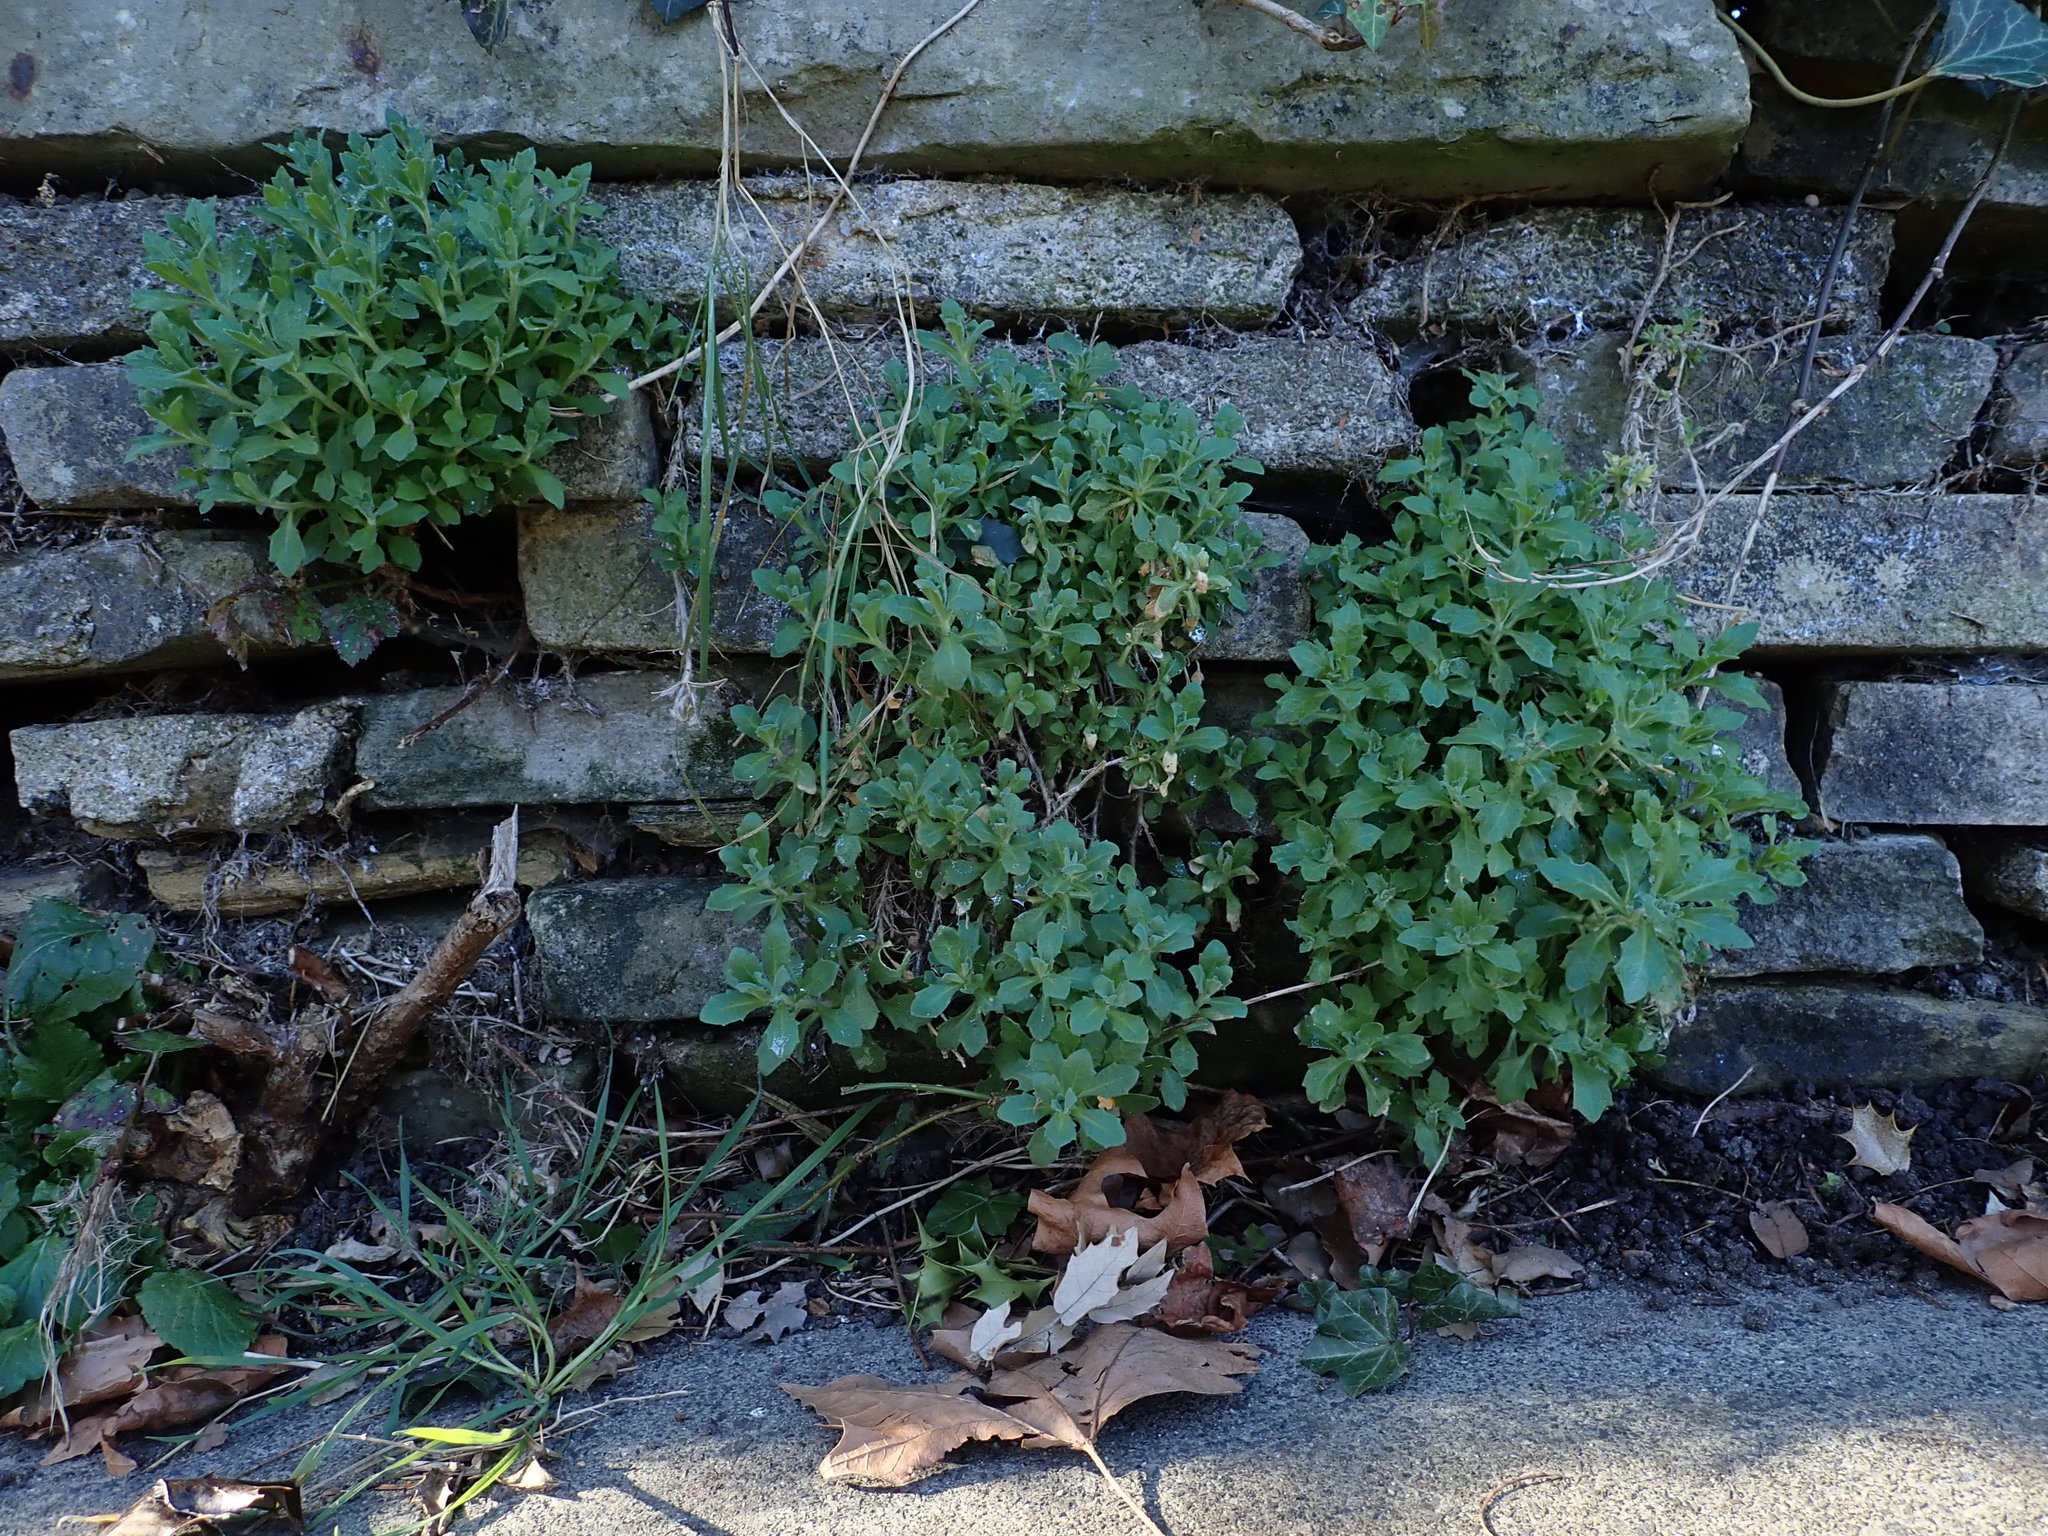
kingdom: Plantae
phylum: Tracheophyta
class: Magnoliopsida
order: Brassicales
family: Brassicaceae
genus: Aubrieta
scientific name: Aubrieta deltoidea
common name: Aubretia
